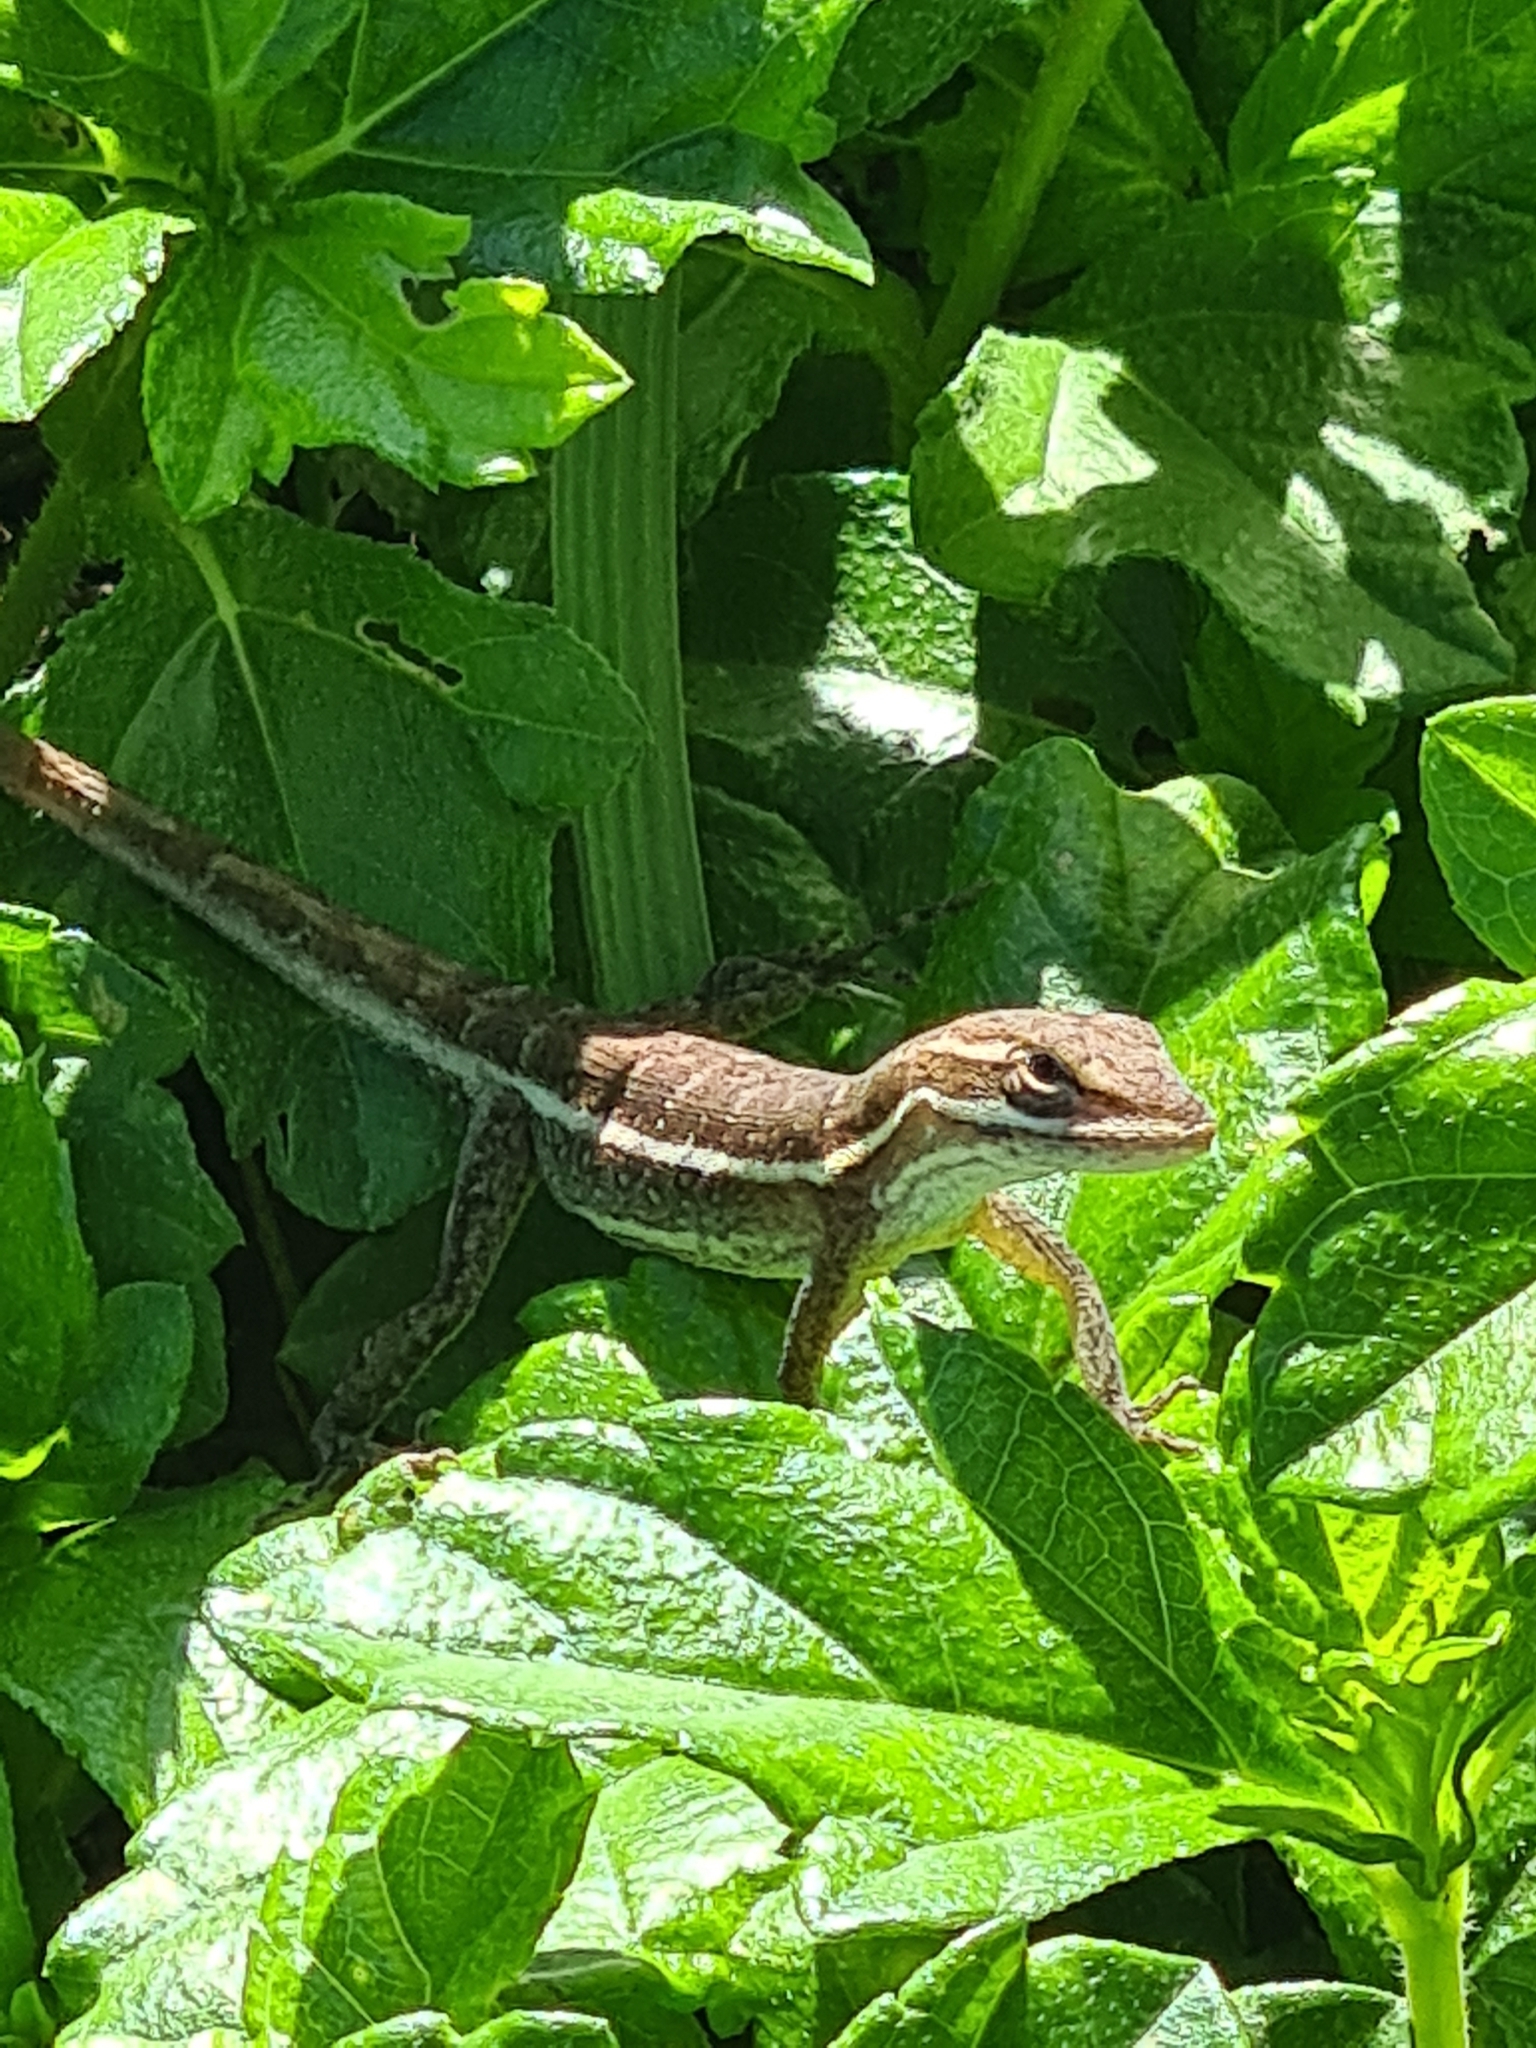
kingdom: Animalia
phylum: Chordata
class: Squamata
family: Dactyloidae
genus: Anolis
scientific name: Anolis auratus
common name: Grass anole
